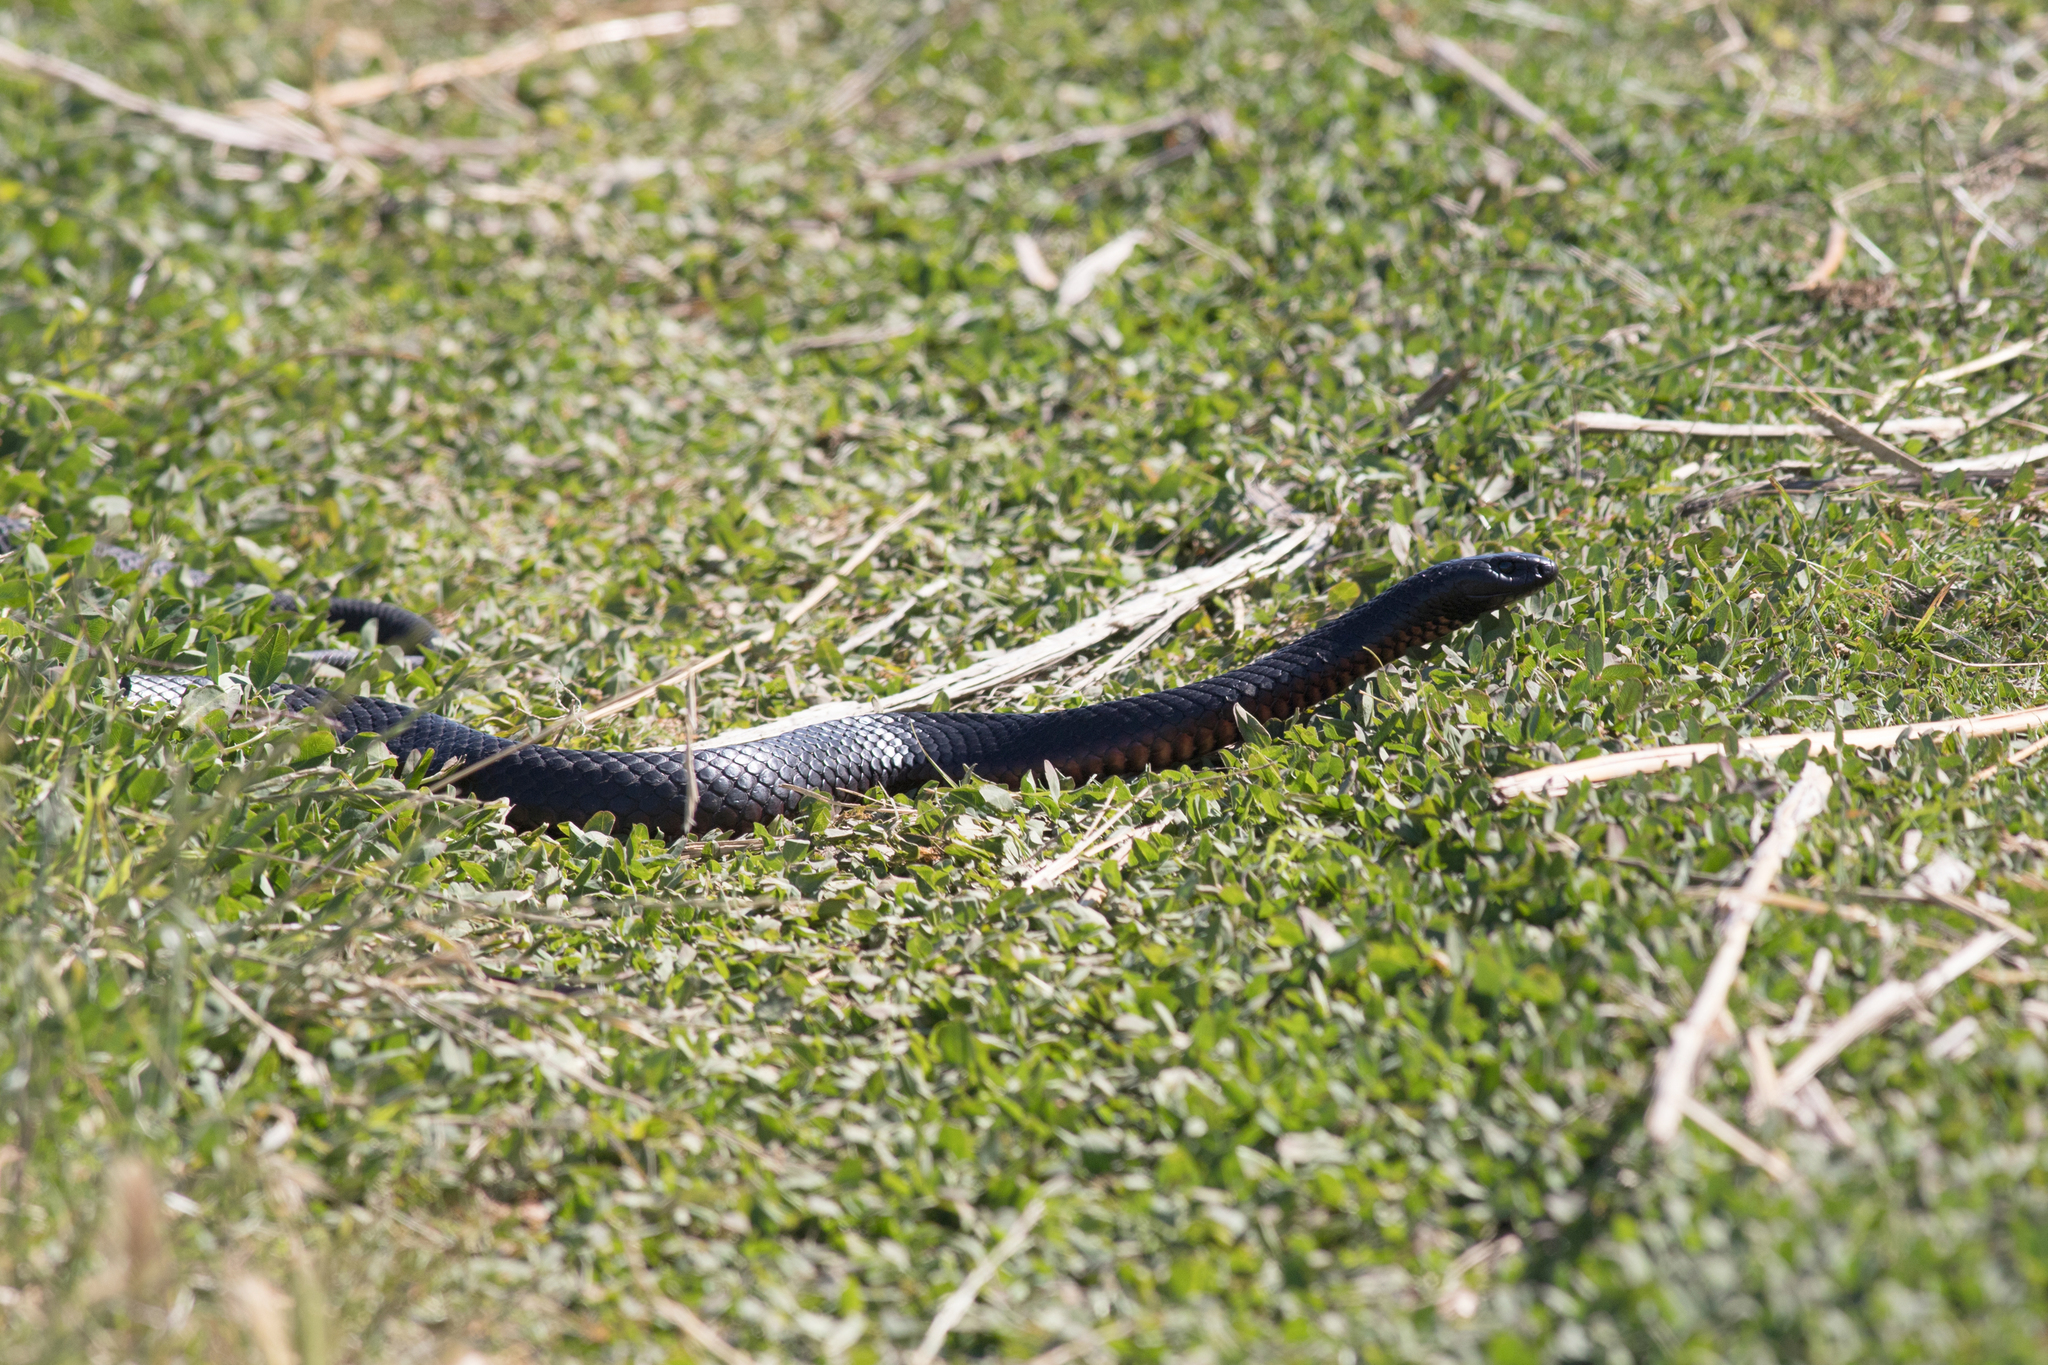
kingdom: Animalia
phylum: Chordata
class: Squamata
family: Elapidae
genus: Pseudechis
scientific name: Pseudechis porphyriacus
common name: Australian black snake
